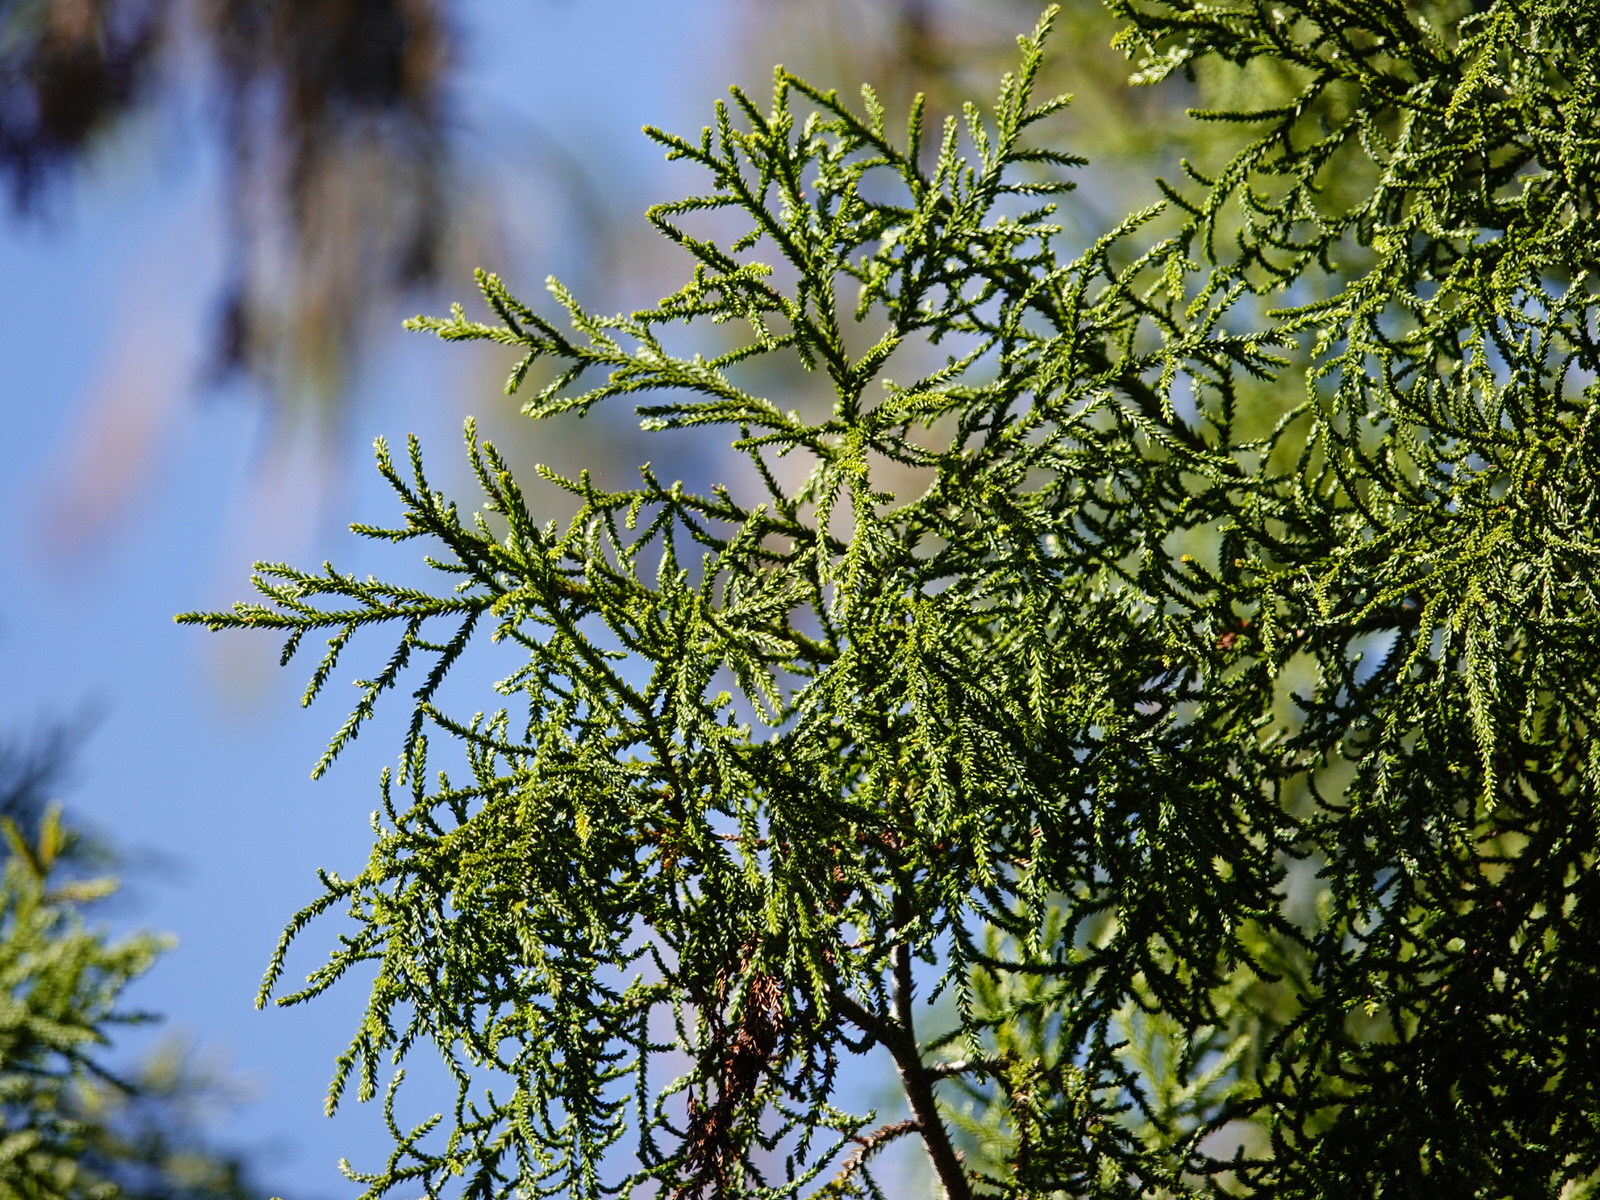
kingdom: Plantae
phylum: Tracheophyta
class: Pinopsida
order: Pinales
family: Podocarpaceae
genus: Dacrydium
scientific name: Dacrydium cupressinum
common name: Red pine
